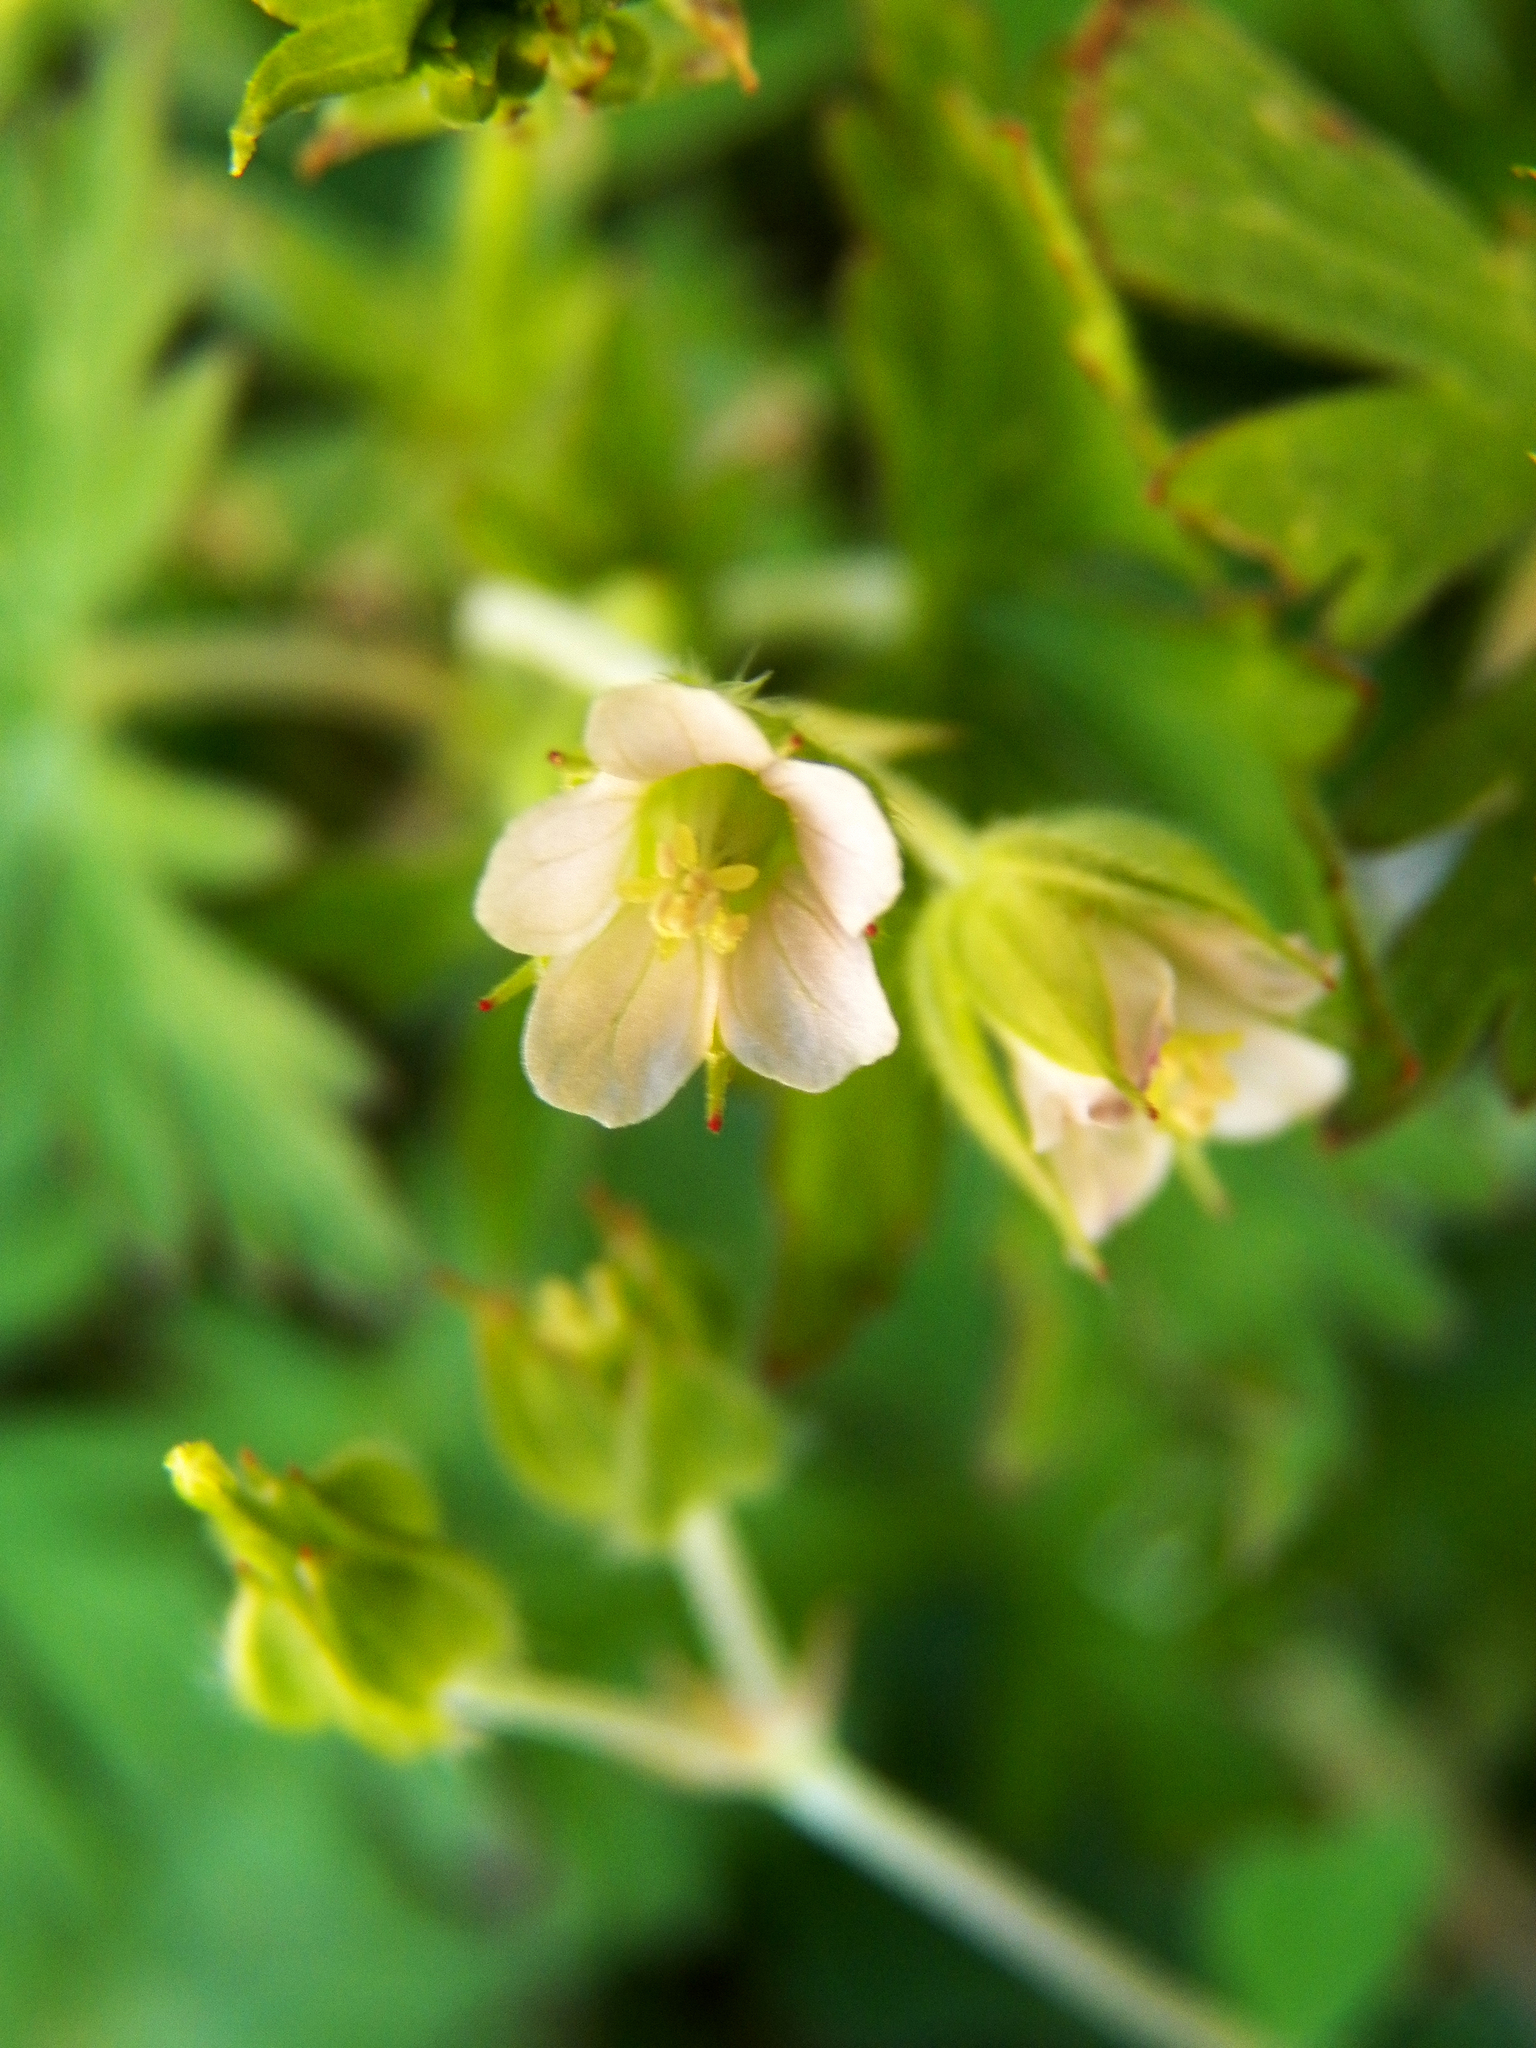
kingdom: Plantae
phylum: Tracheophyta
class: Magnoliopsida
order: Geraniales
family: Geraniaceae
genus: Geranium
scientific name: Geranium carolinianum
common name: Carolina crane's-bill
